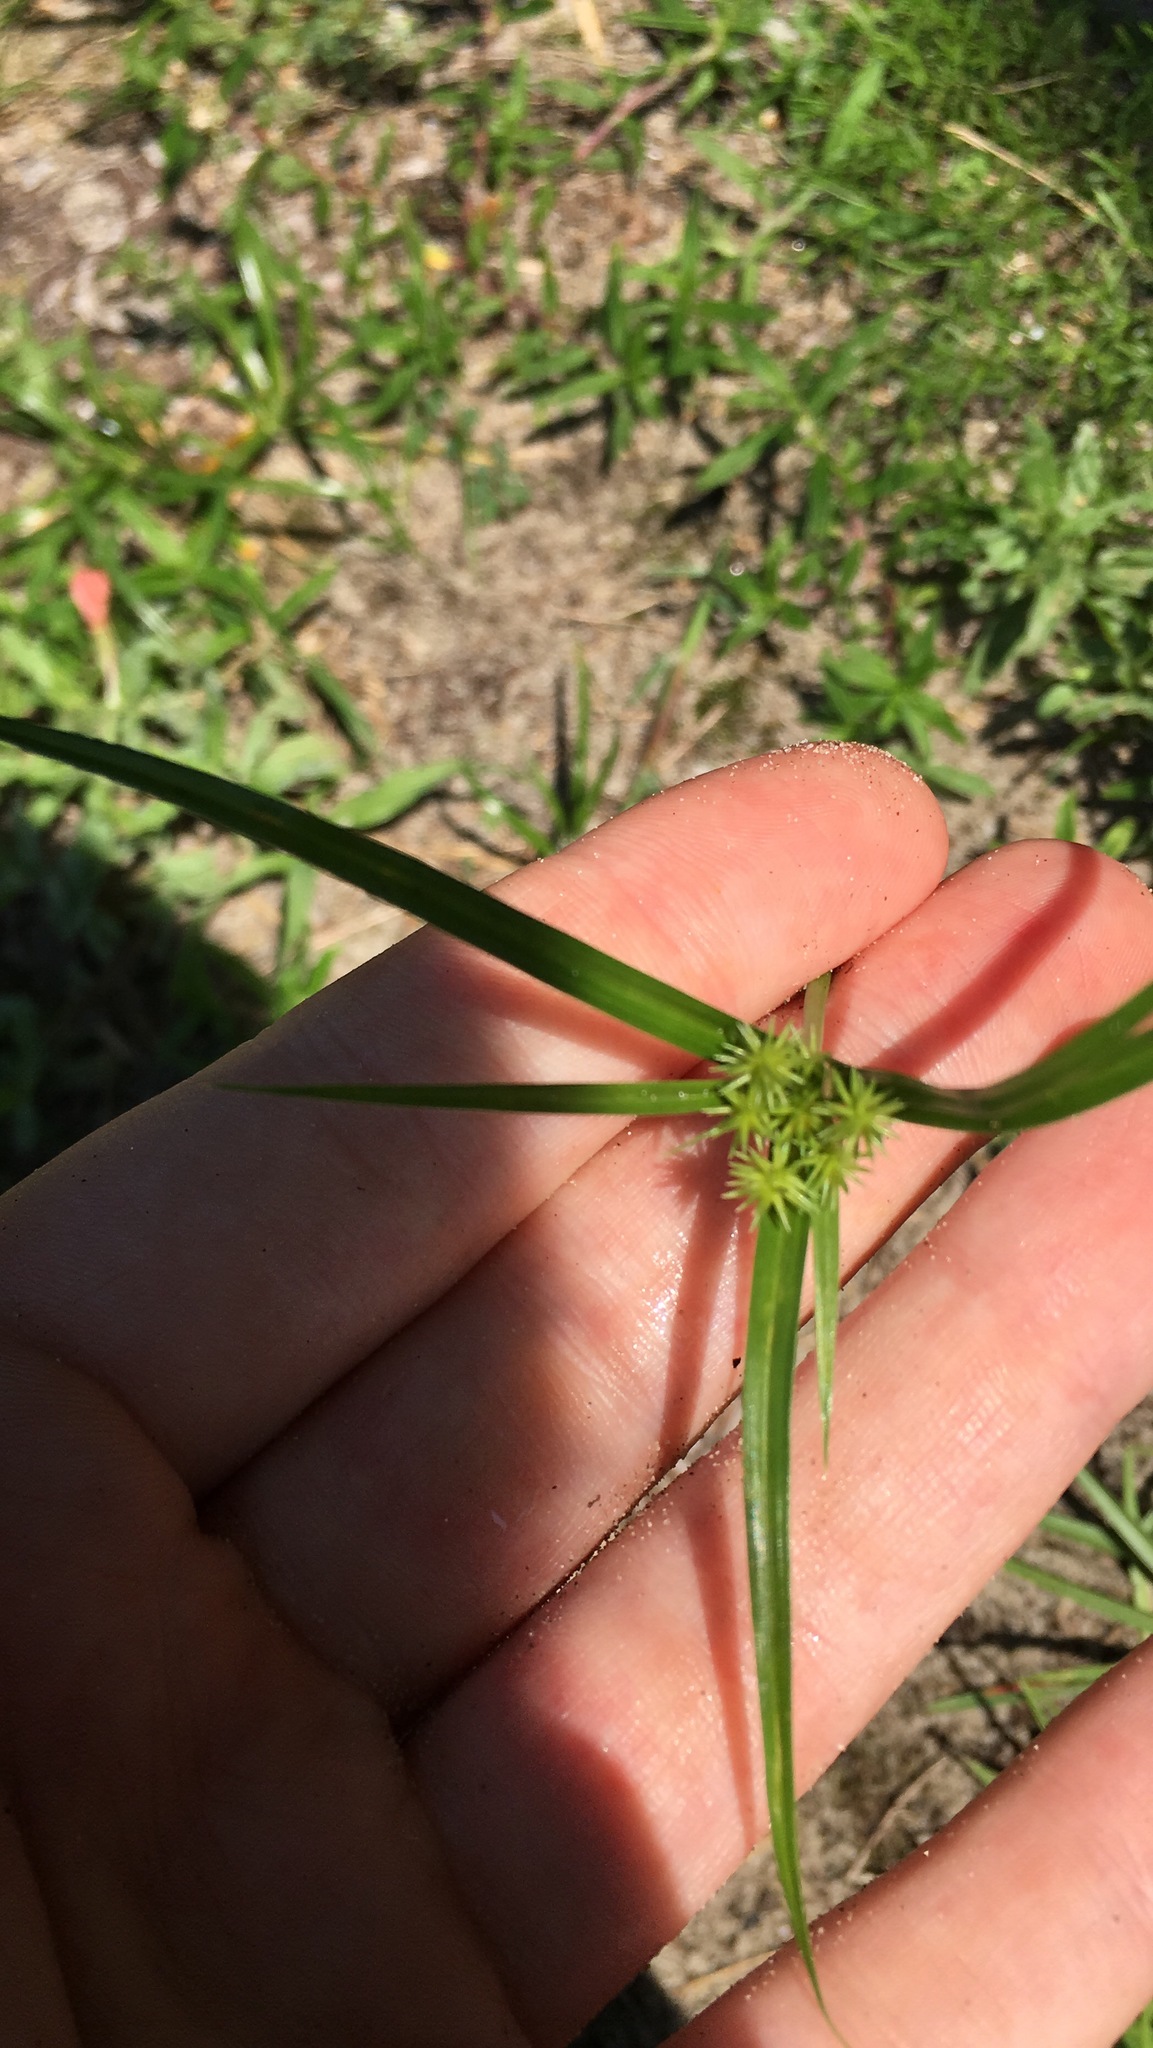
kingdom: Plantae
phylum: Tracheophyta
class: Liliopsida
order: Poales
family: Cyperaceae
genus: Cyperus
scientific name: Cyperus croceus
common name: Baldwin's flatsedge
